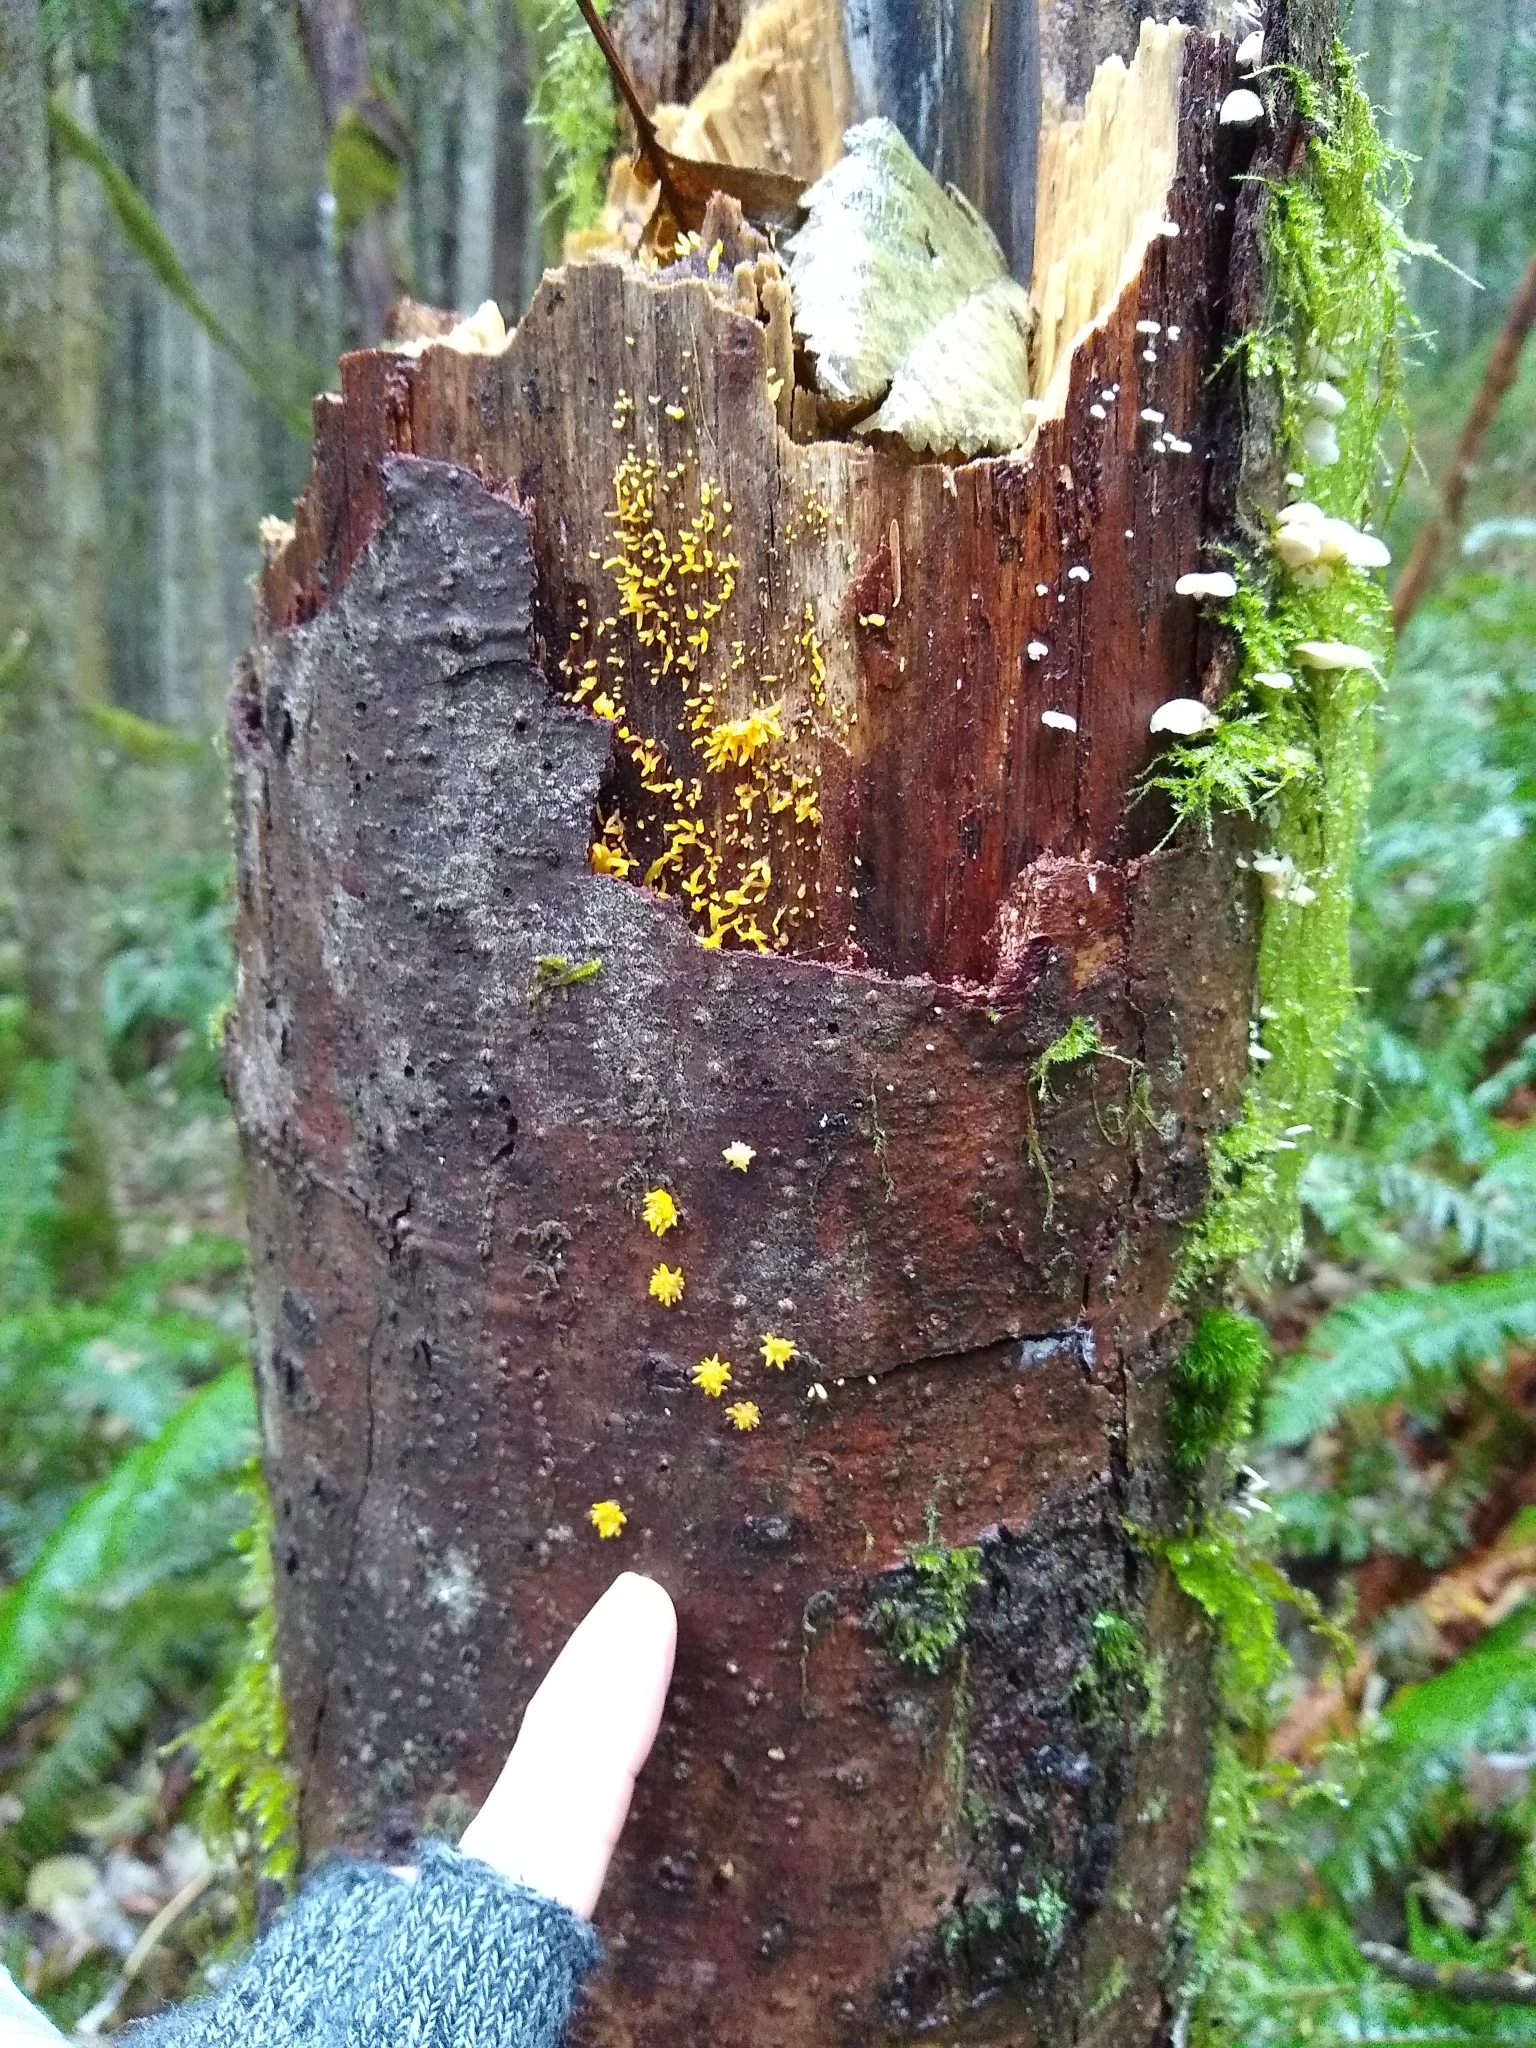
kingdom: Fungi
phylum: Basidiomycota
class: Dacrymycetes
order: Dacrymycetales
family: Dacrymycetaceae
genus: Calocera
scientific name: Calocera cornea
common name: Small stagshorn
